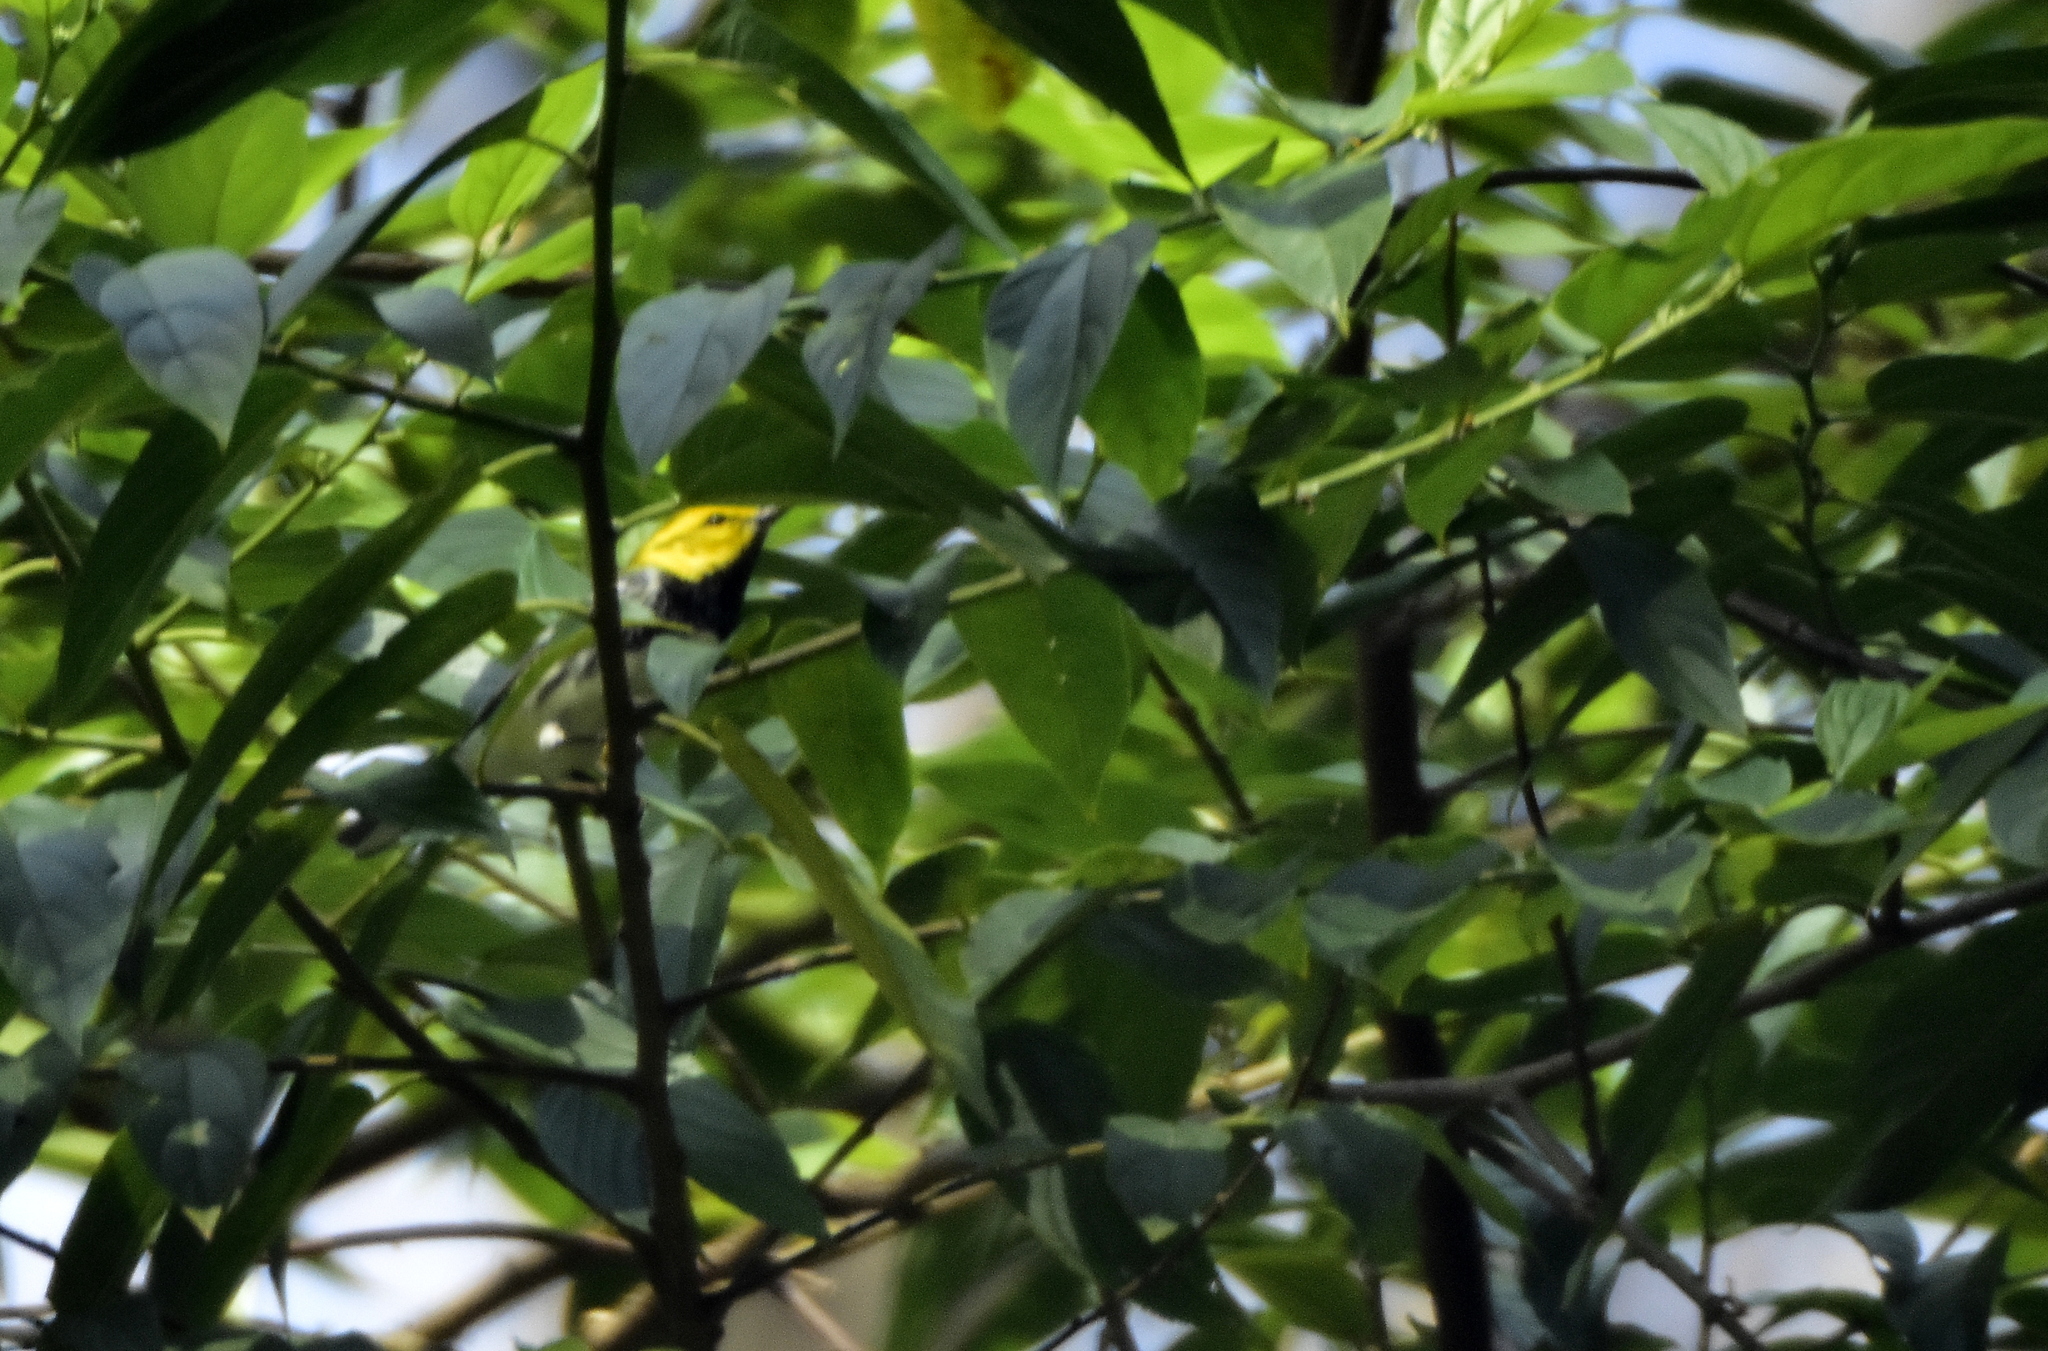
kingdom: Animalia
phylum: Chordata
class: Aves
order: Passeriformes
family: Parulidae
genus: Setophaga
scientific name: Setophaga virens
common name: Black-throated green warbler
